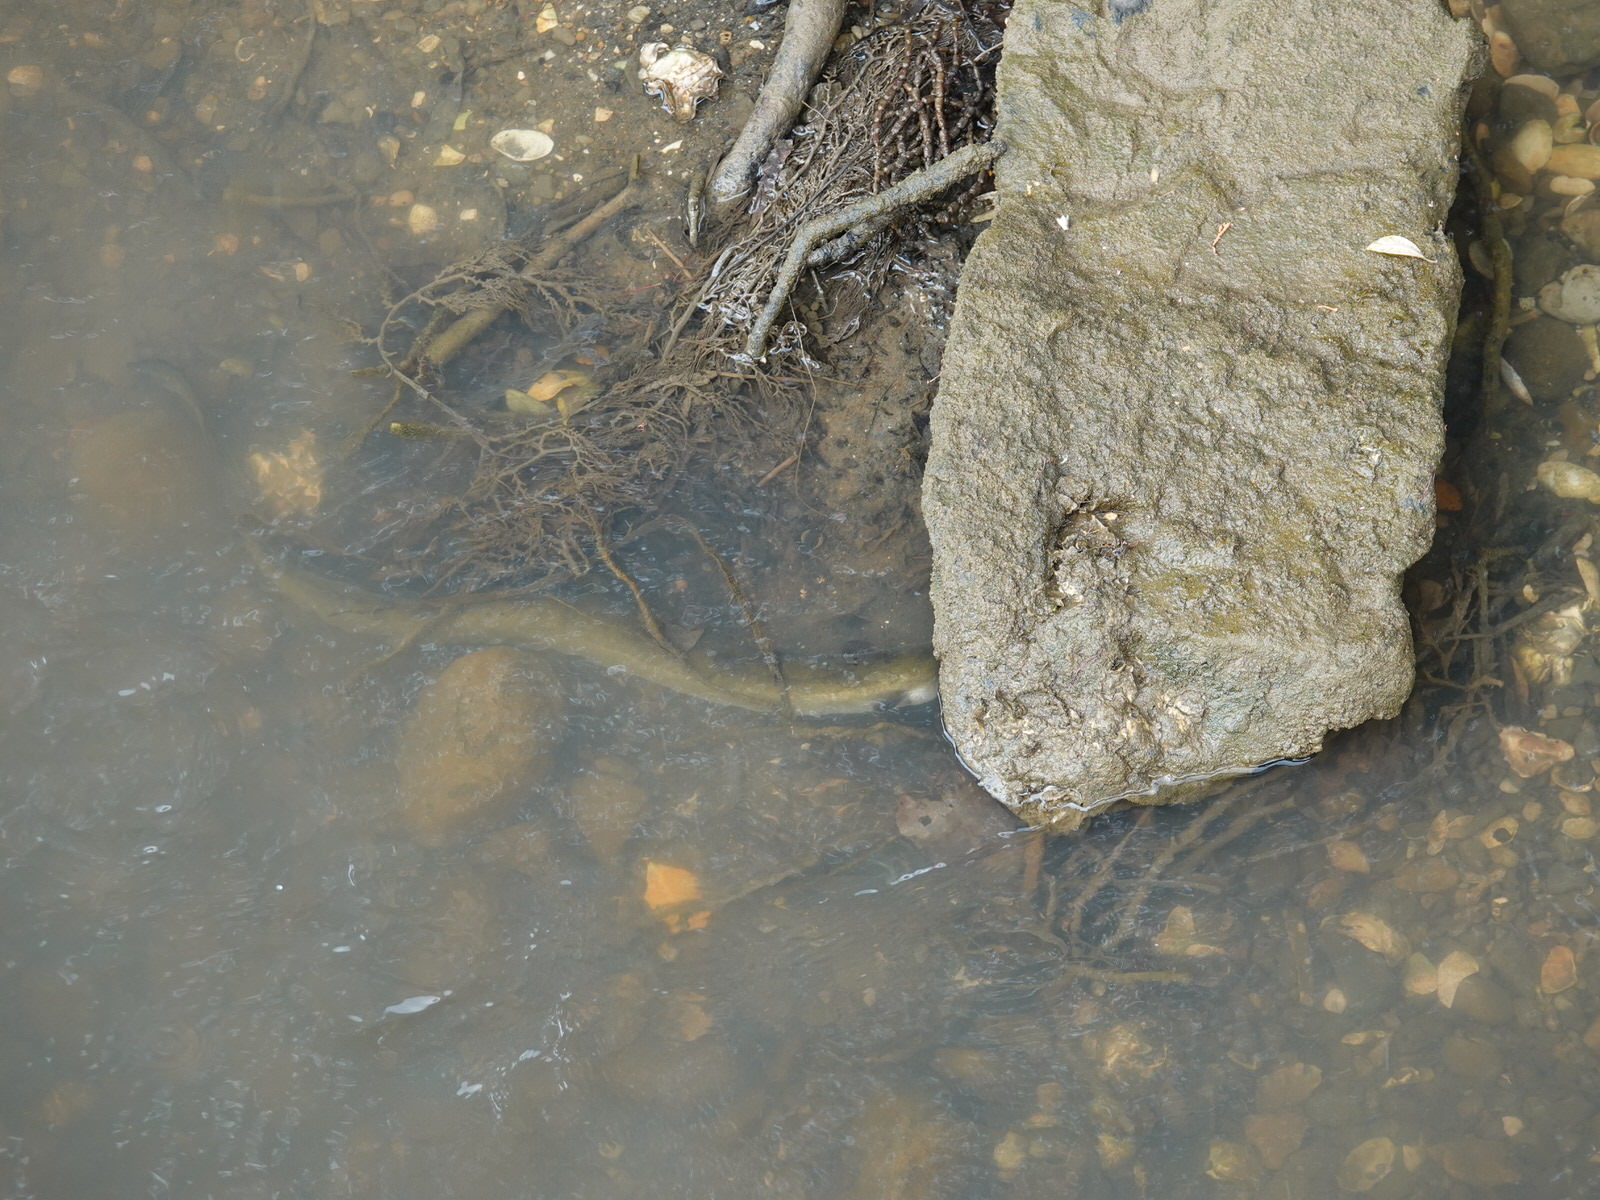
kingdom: Animalia
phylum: Chordata
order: Anguilliformes
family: Anguillidae
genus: Anguilla
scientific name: Anguilla dieffenbachii
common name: New zealand longfin eel
